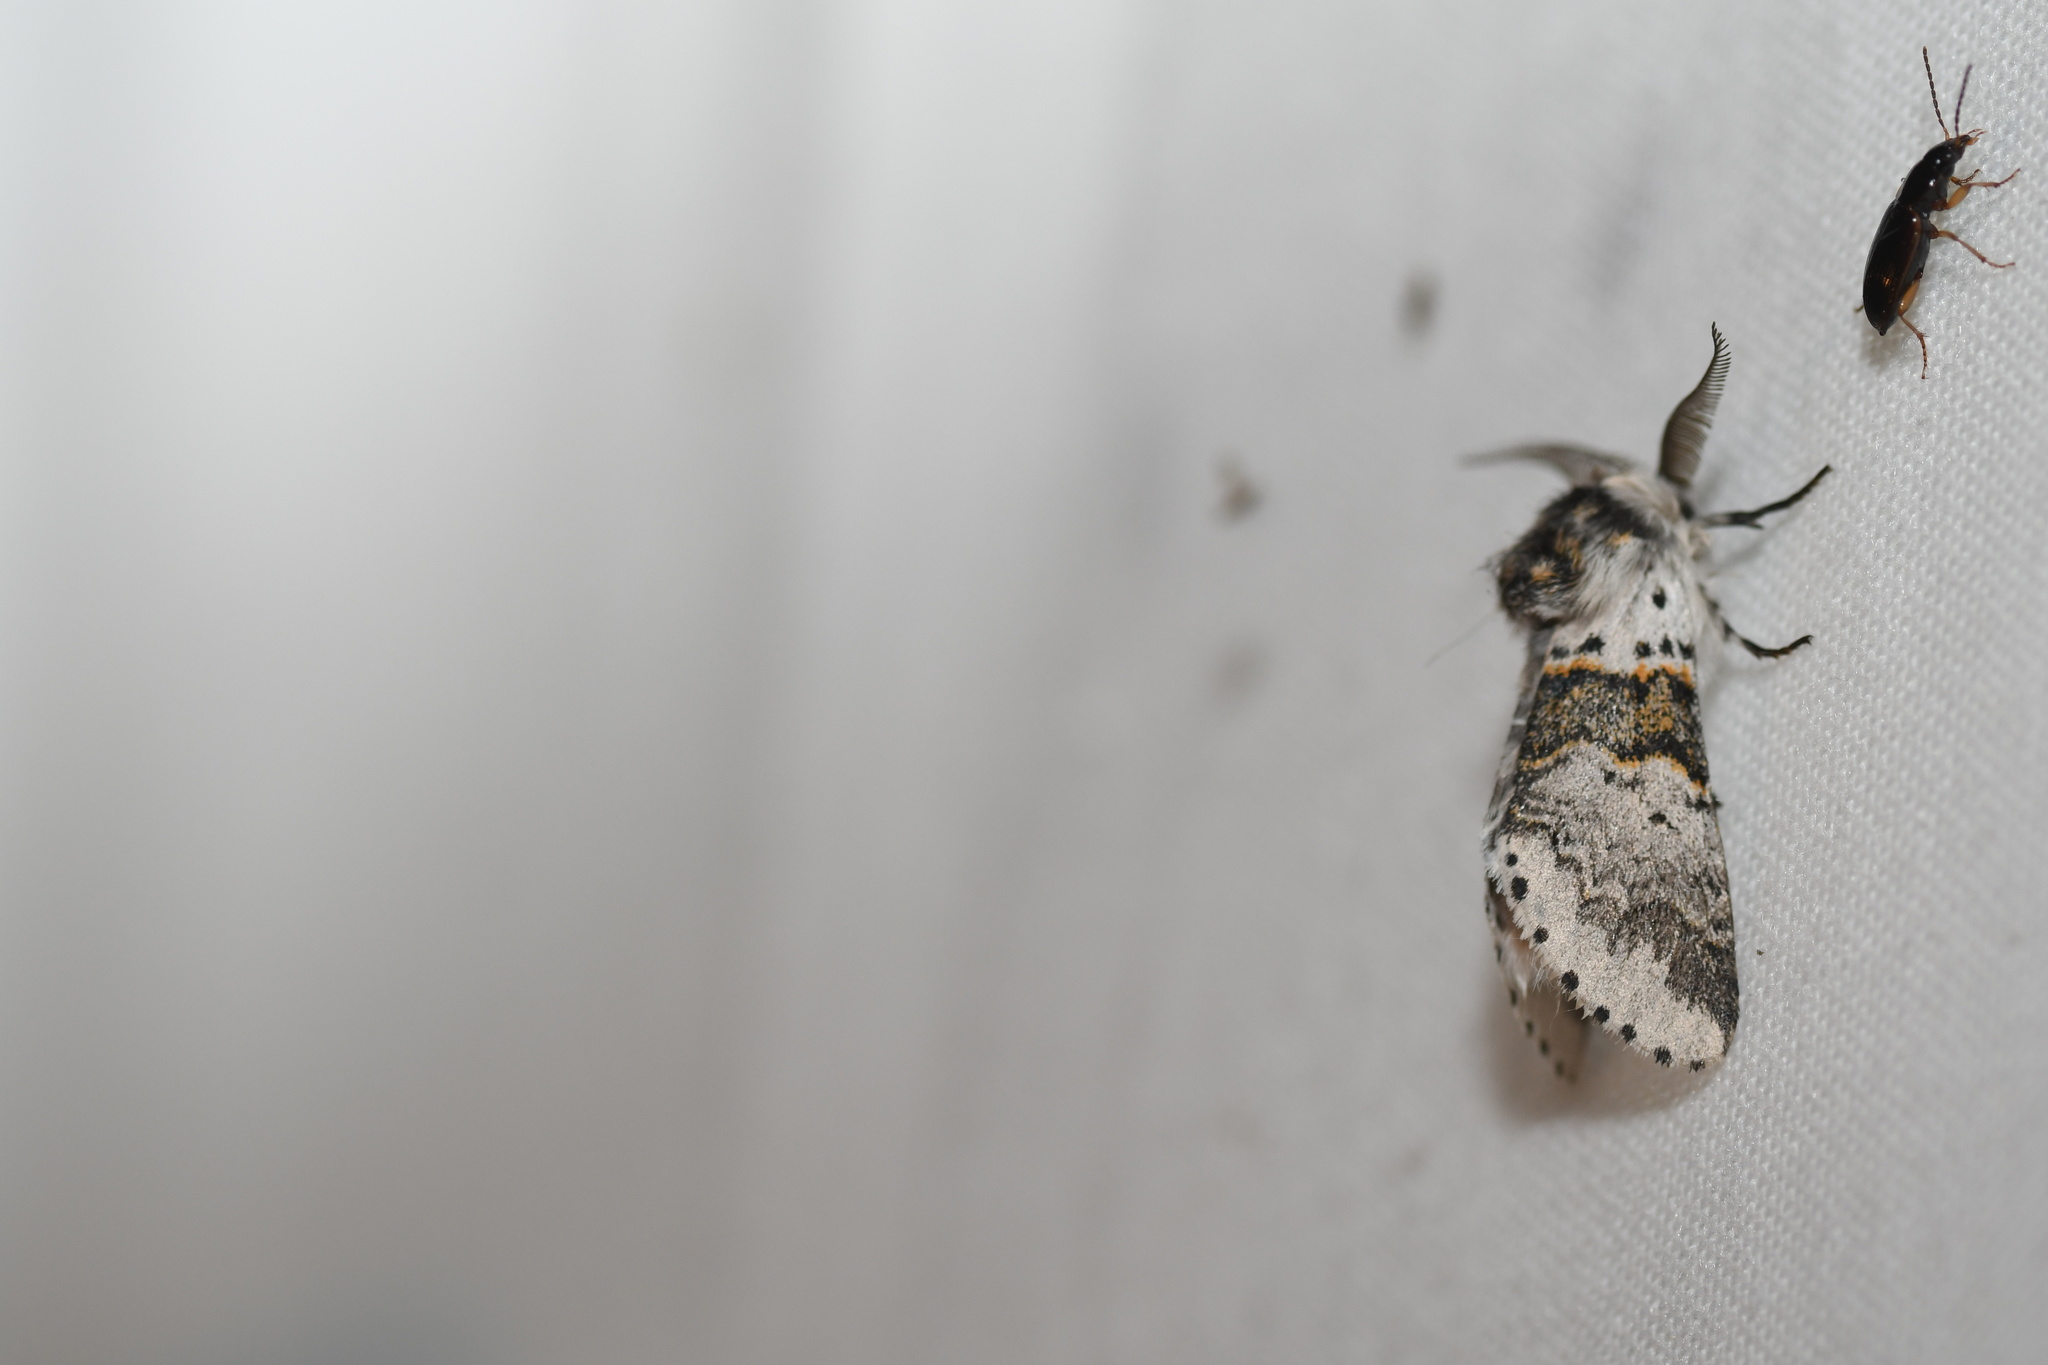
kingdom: Animalia
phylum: Arthropoda
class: Insecta
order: Lepidoptera
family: Notodontidae
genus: Furcula
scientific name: Furcula occidentalis
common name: Western furcula moth
